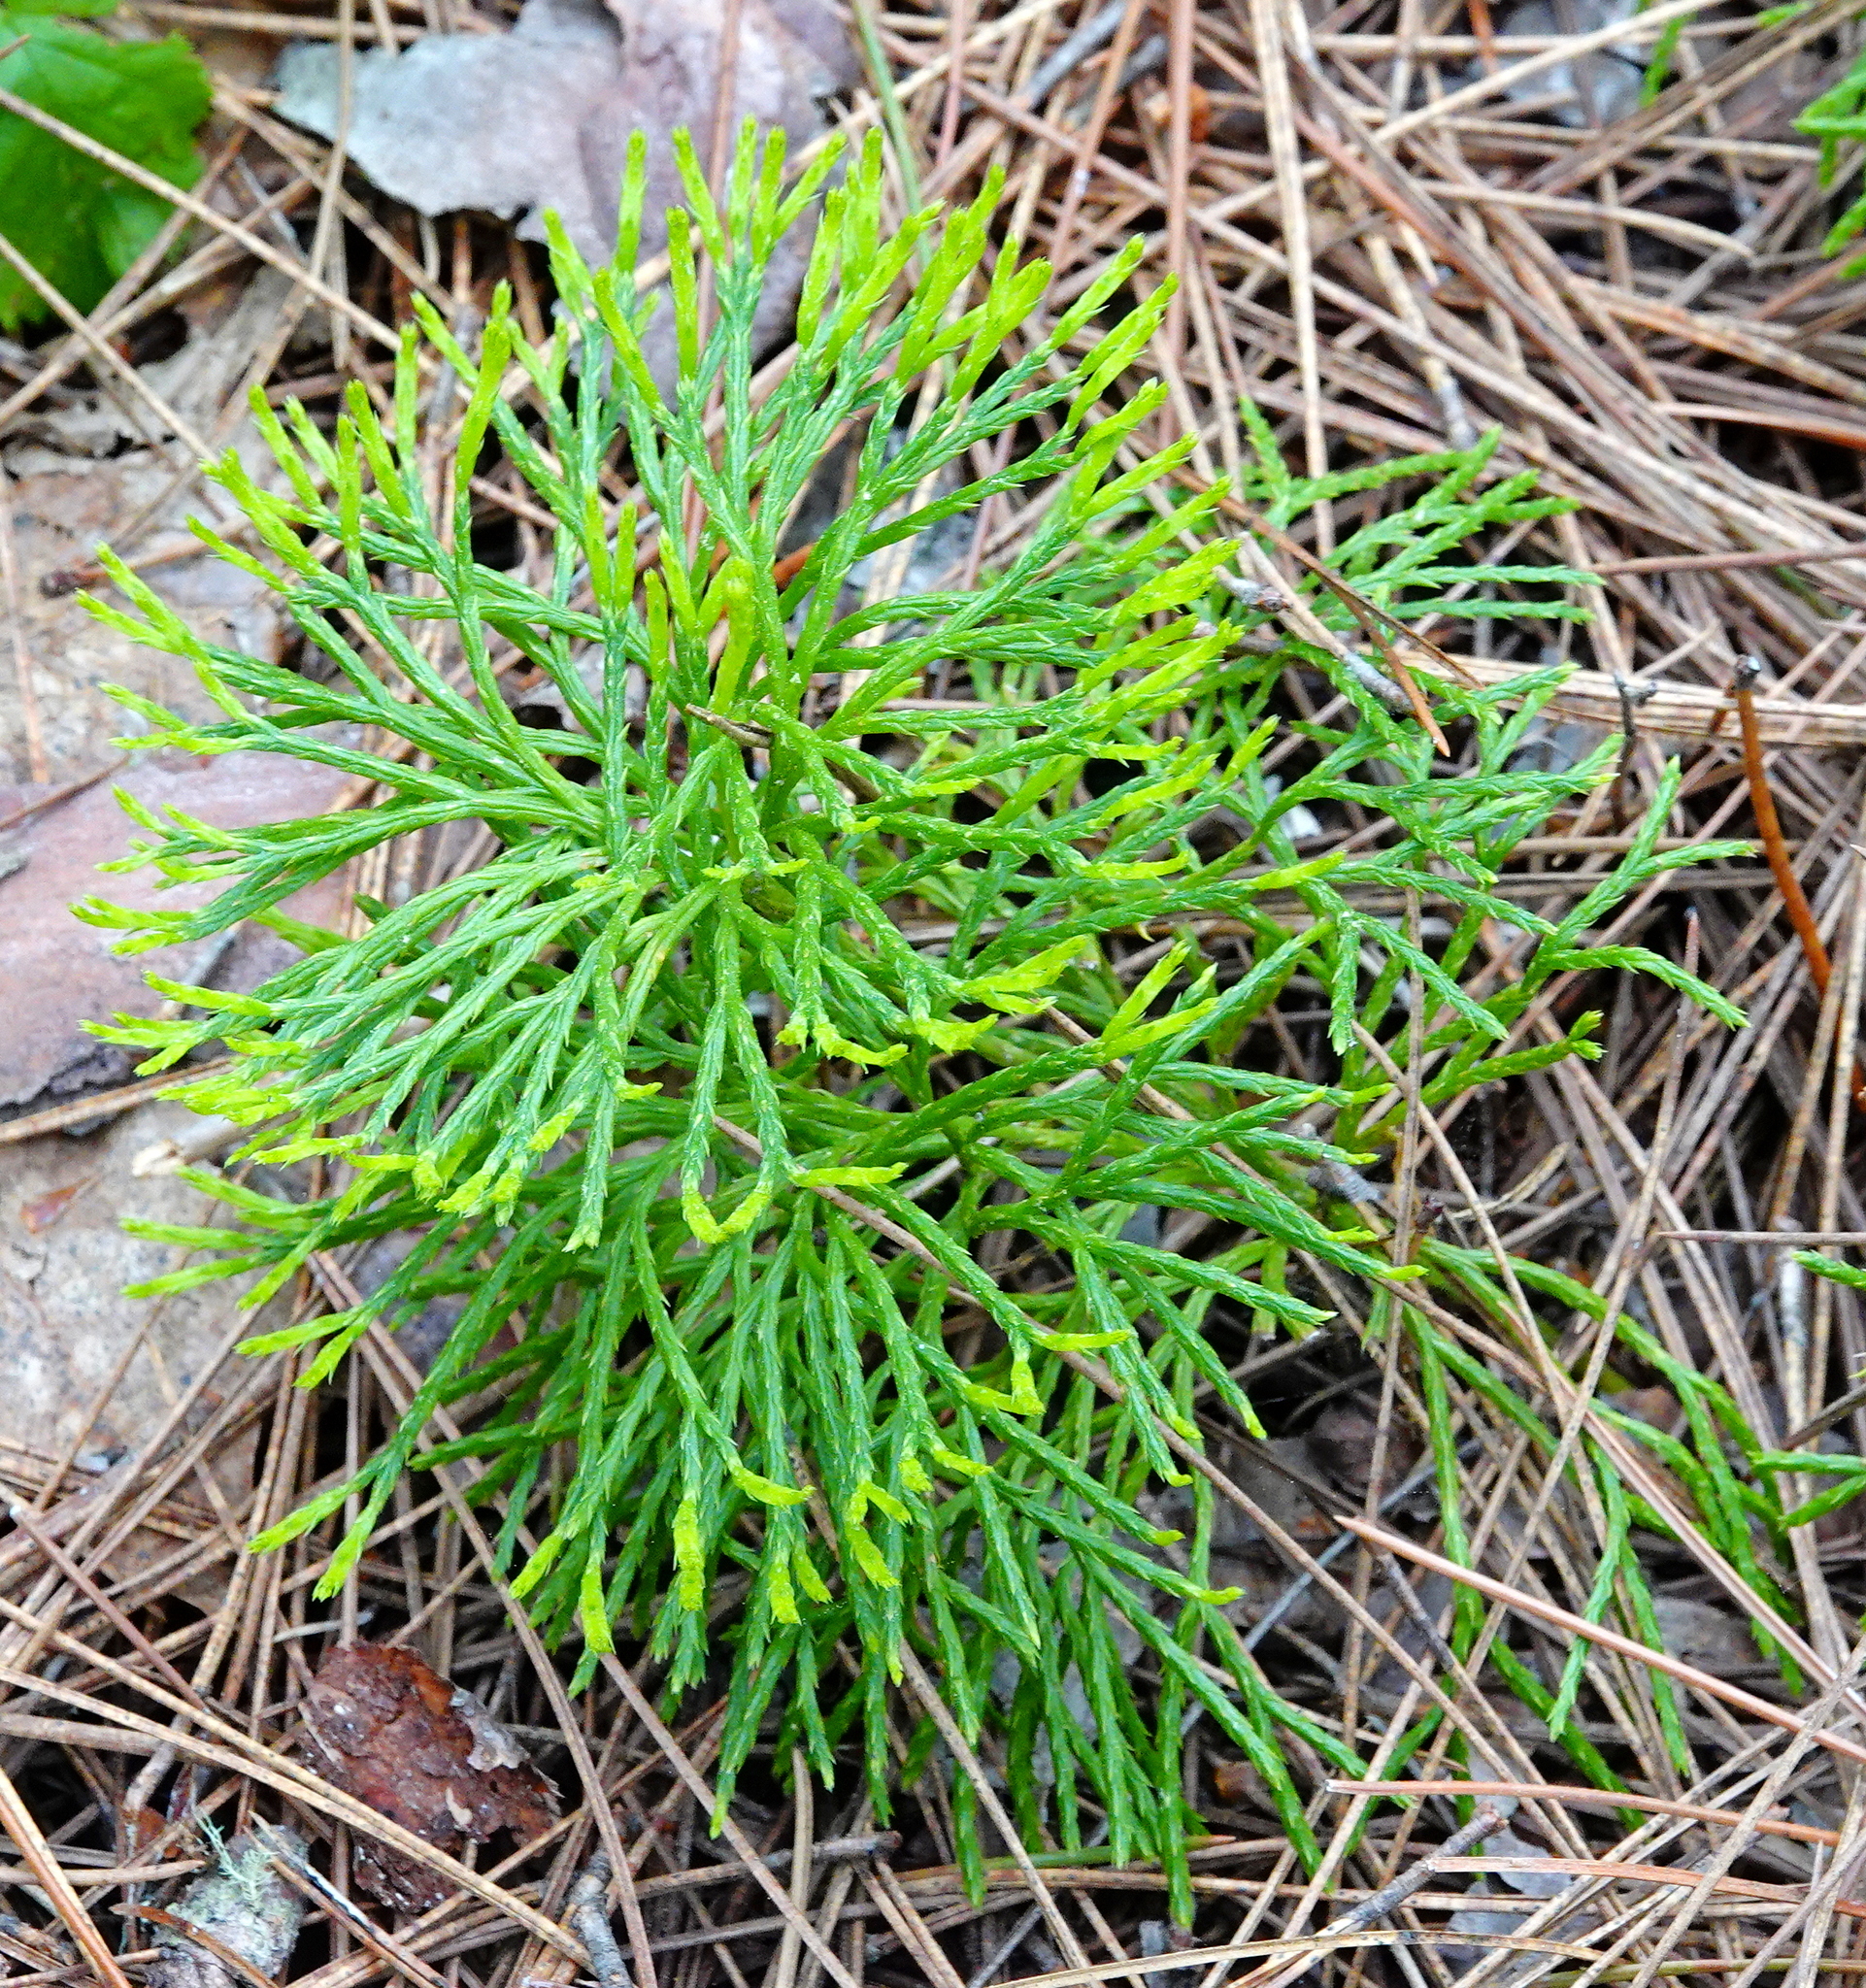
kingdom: Plantae
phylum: Tracheophyta
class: Lycopodiopsida
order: Lycopodiales
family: Lycopodiaceae
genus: Diphasiastrum
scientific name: Diphasiastrum complanatum
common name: Northern running-pine
